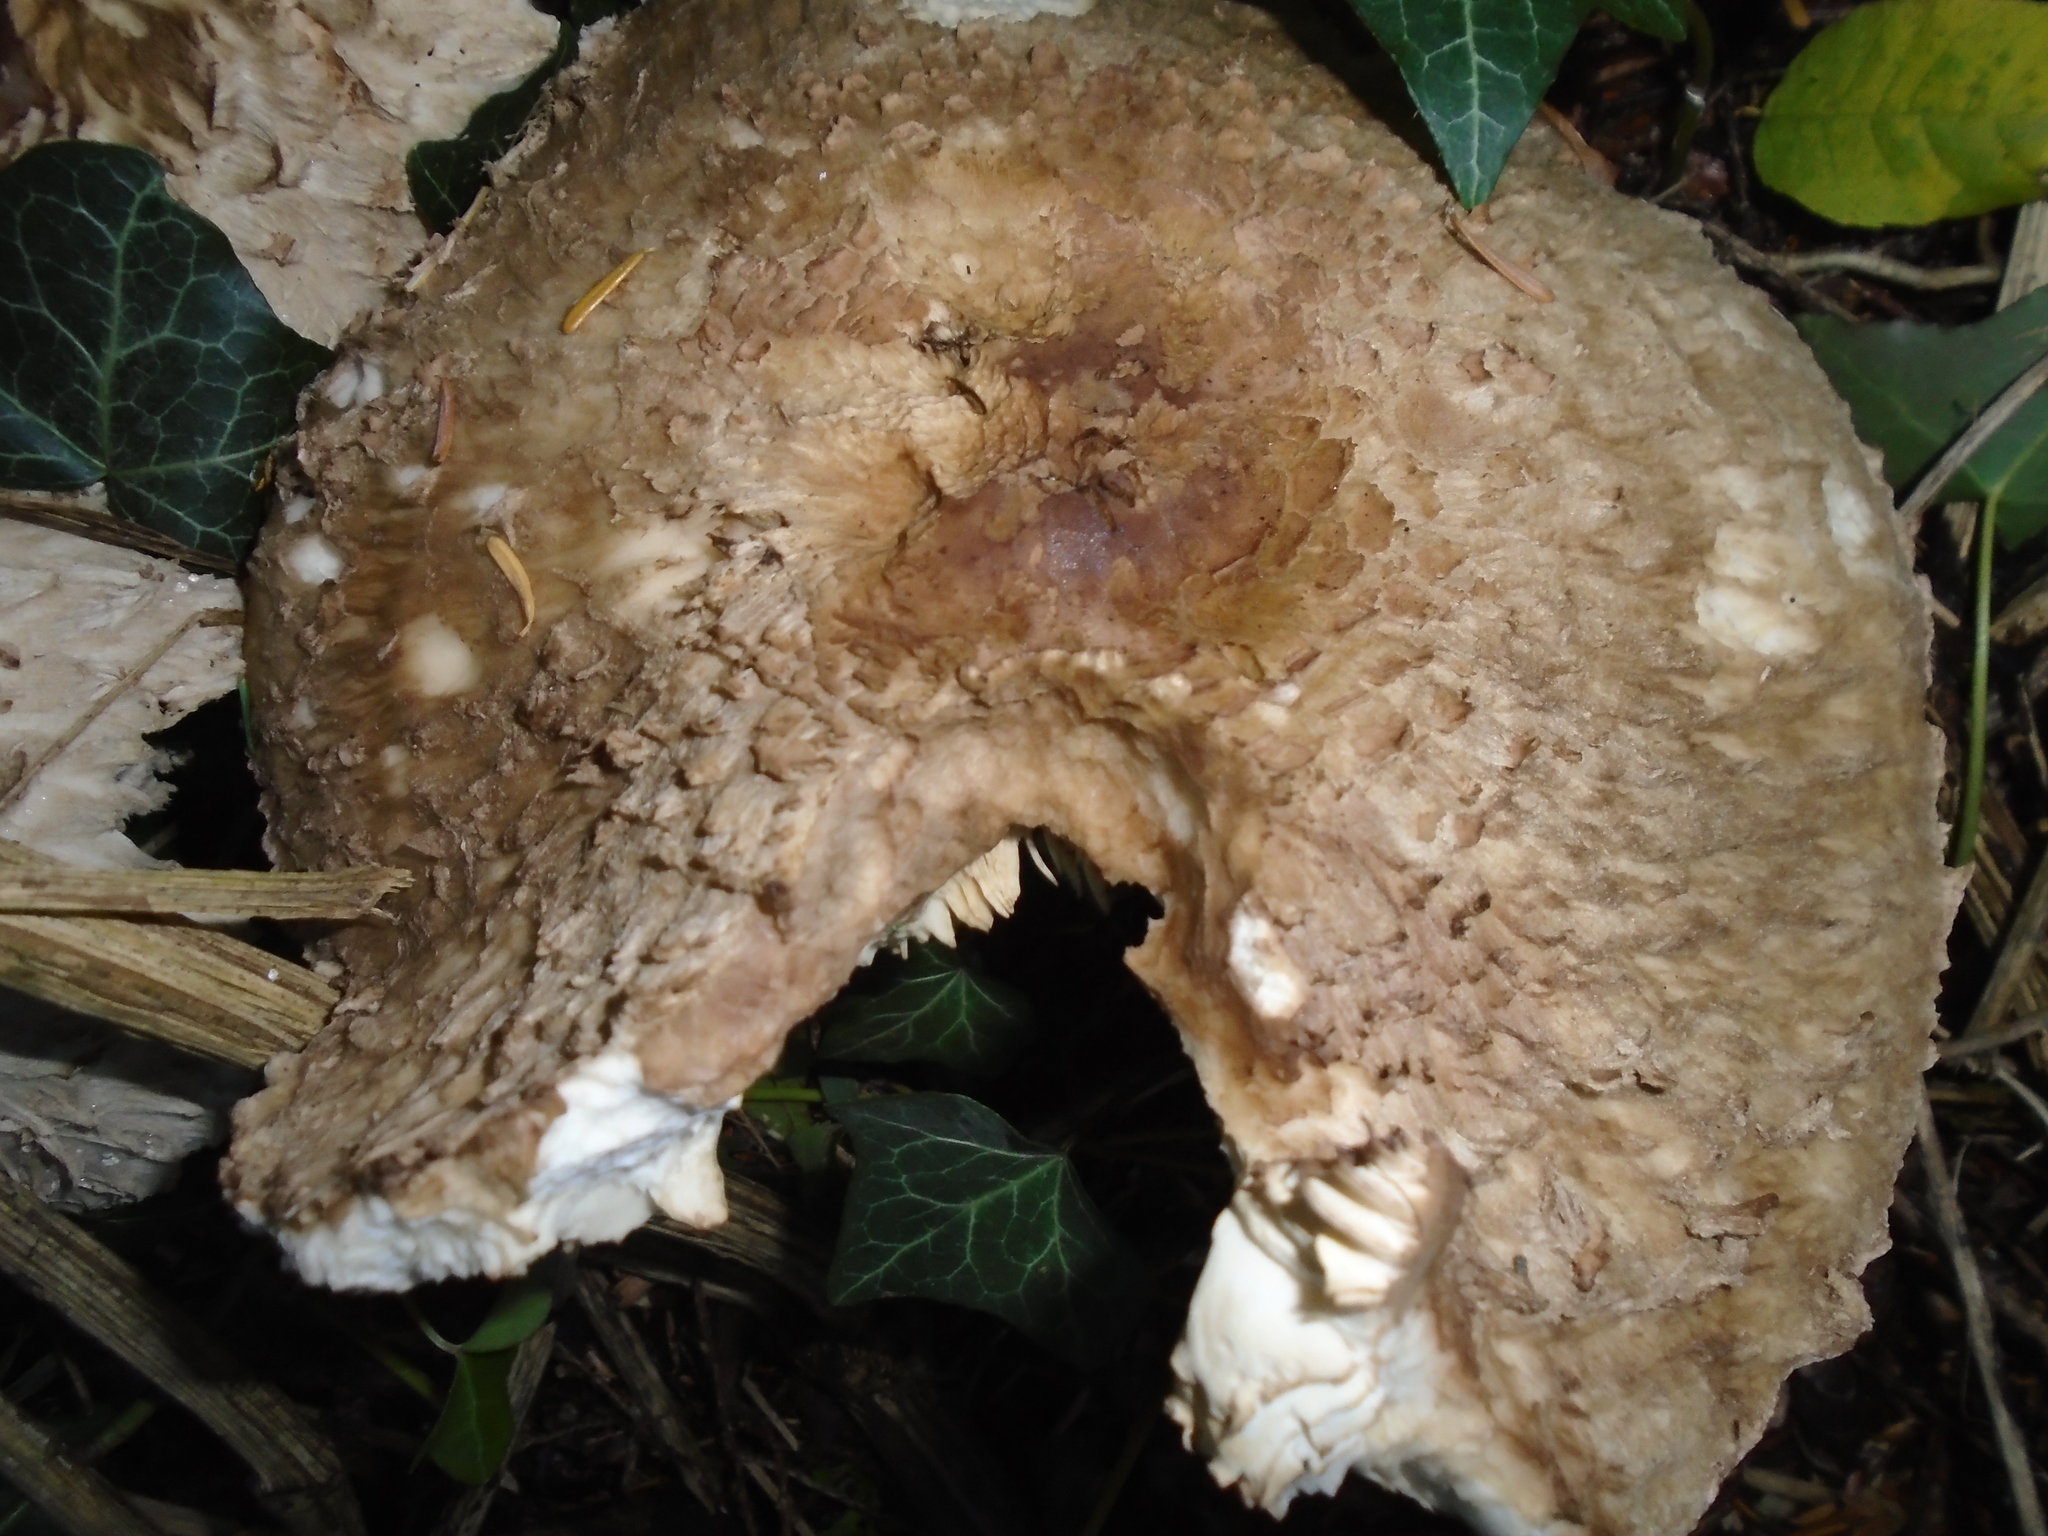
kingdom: Fungi
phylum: Basidiomycota
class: Agaricomycetes
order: Agaricales
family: Agaricaceae
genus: Chlorophyllum
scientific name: Chlorophyllum olivieri
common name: Conifer parasol
